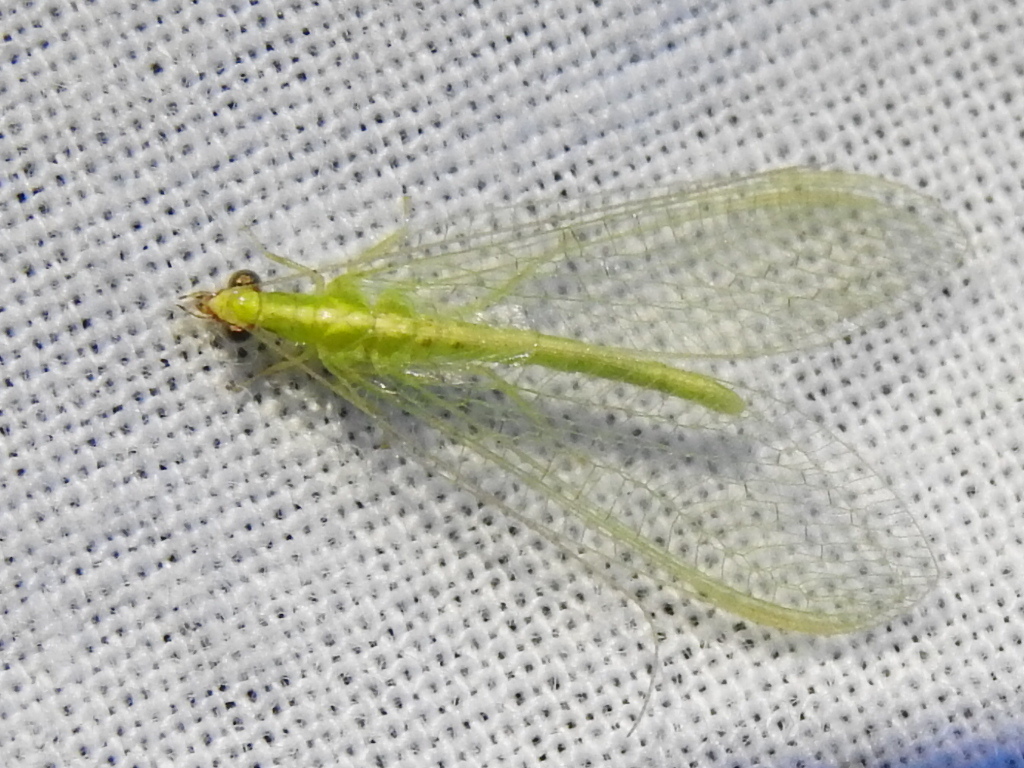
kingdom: Animalia
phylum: Arthropoda
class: Insecta
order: Neuroptera
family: Chrysopidae
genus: Chrysoperla
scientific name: Chrysoperla rufilabris
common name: Red-lipped green lacewing
